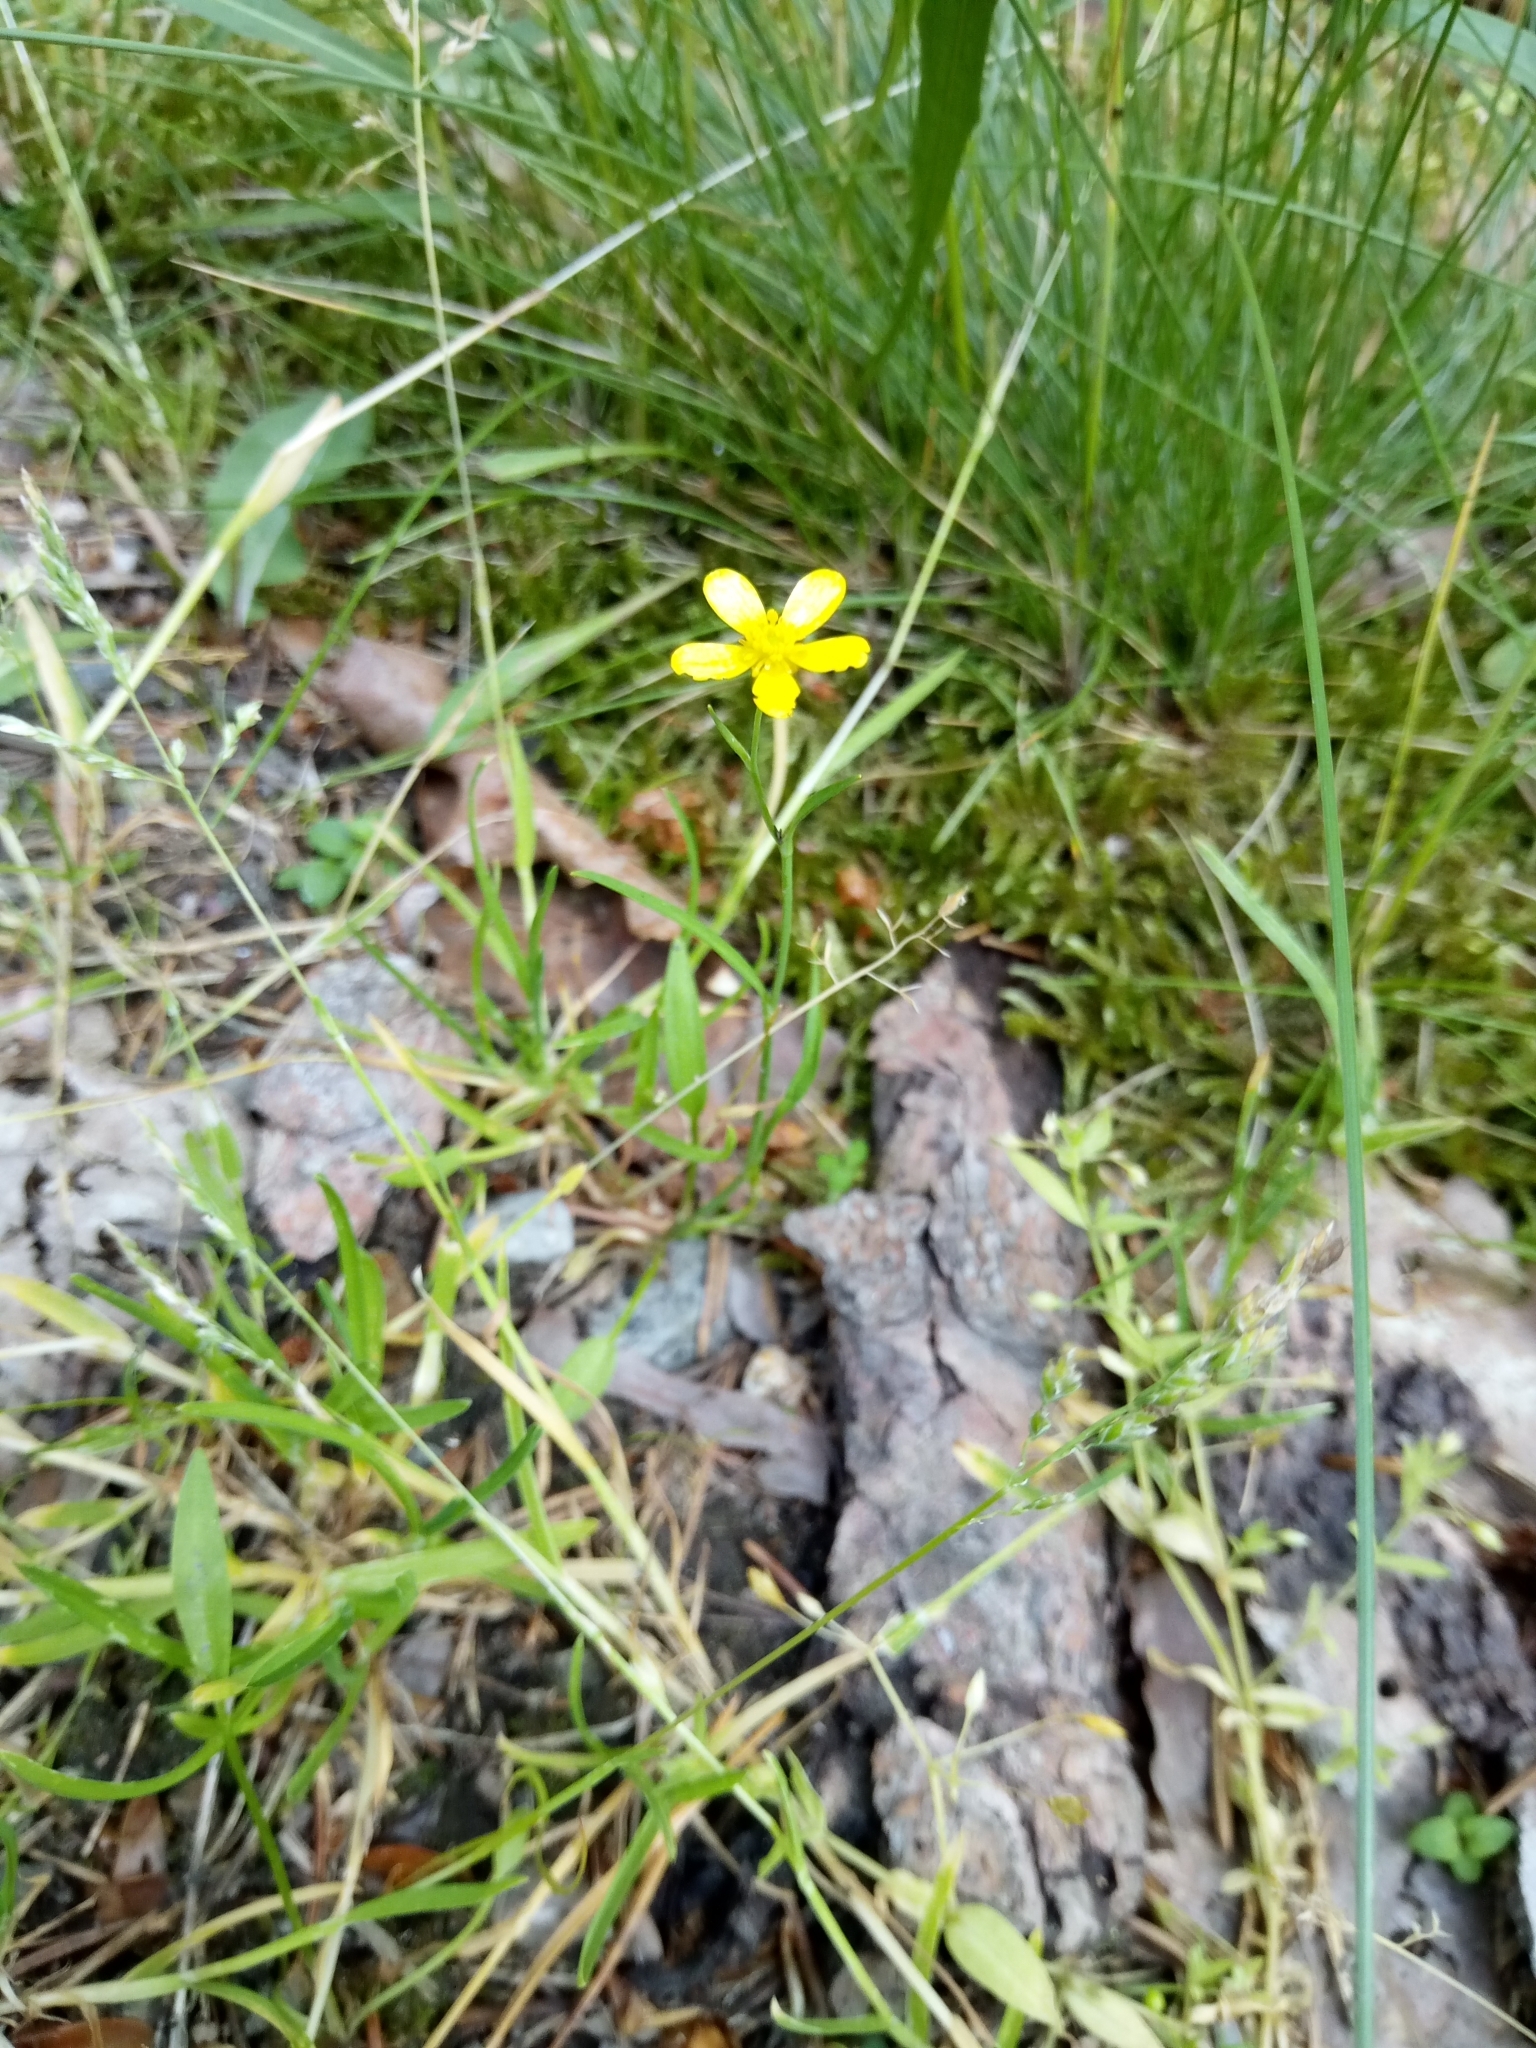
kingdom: Plantae
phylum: Tracheophyta
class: Magnoliopsida
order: Ranunculales
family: Ranunculaceae
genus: Ranunculus
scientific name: Ranunculus flammula
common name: Lesser spearwort
